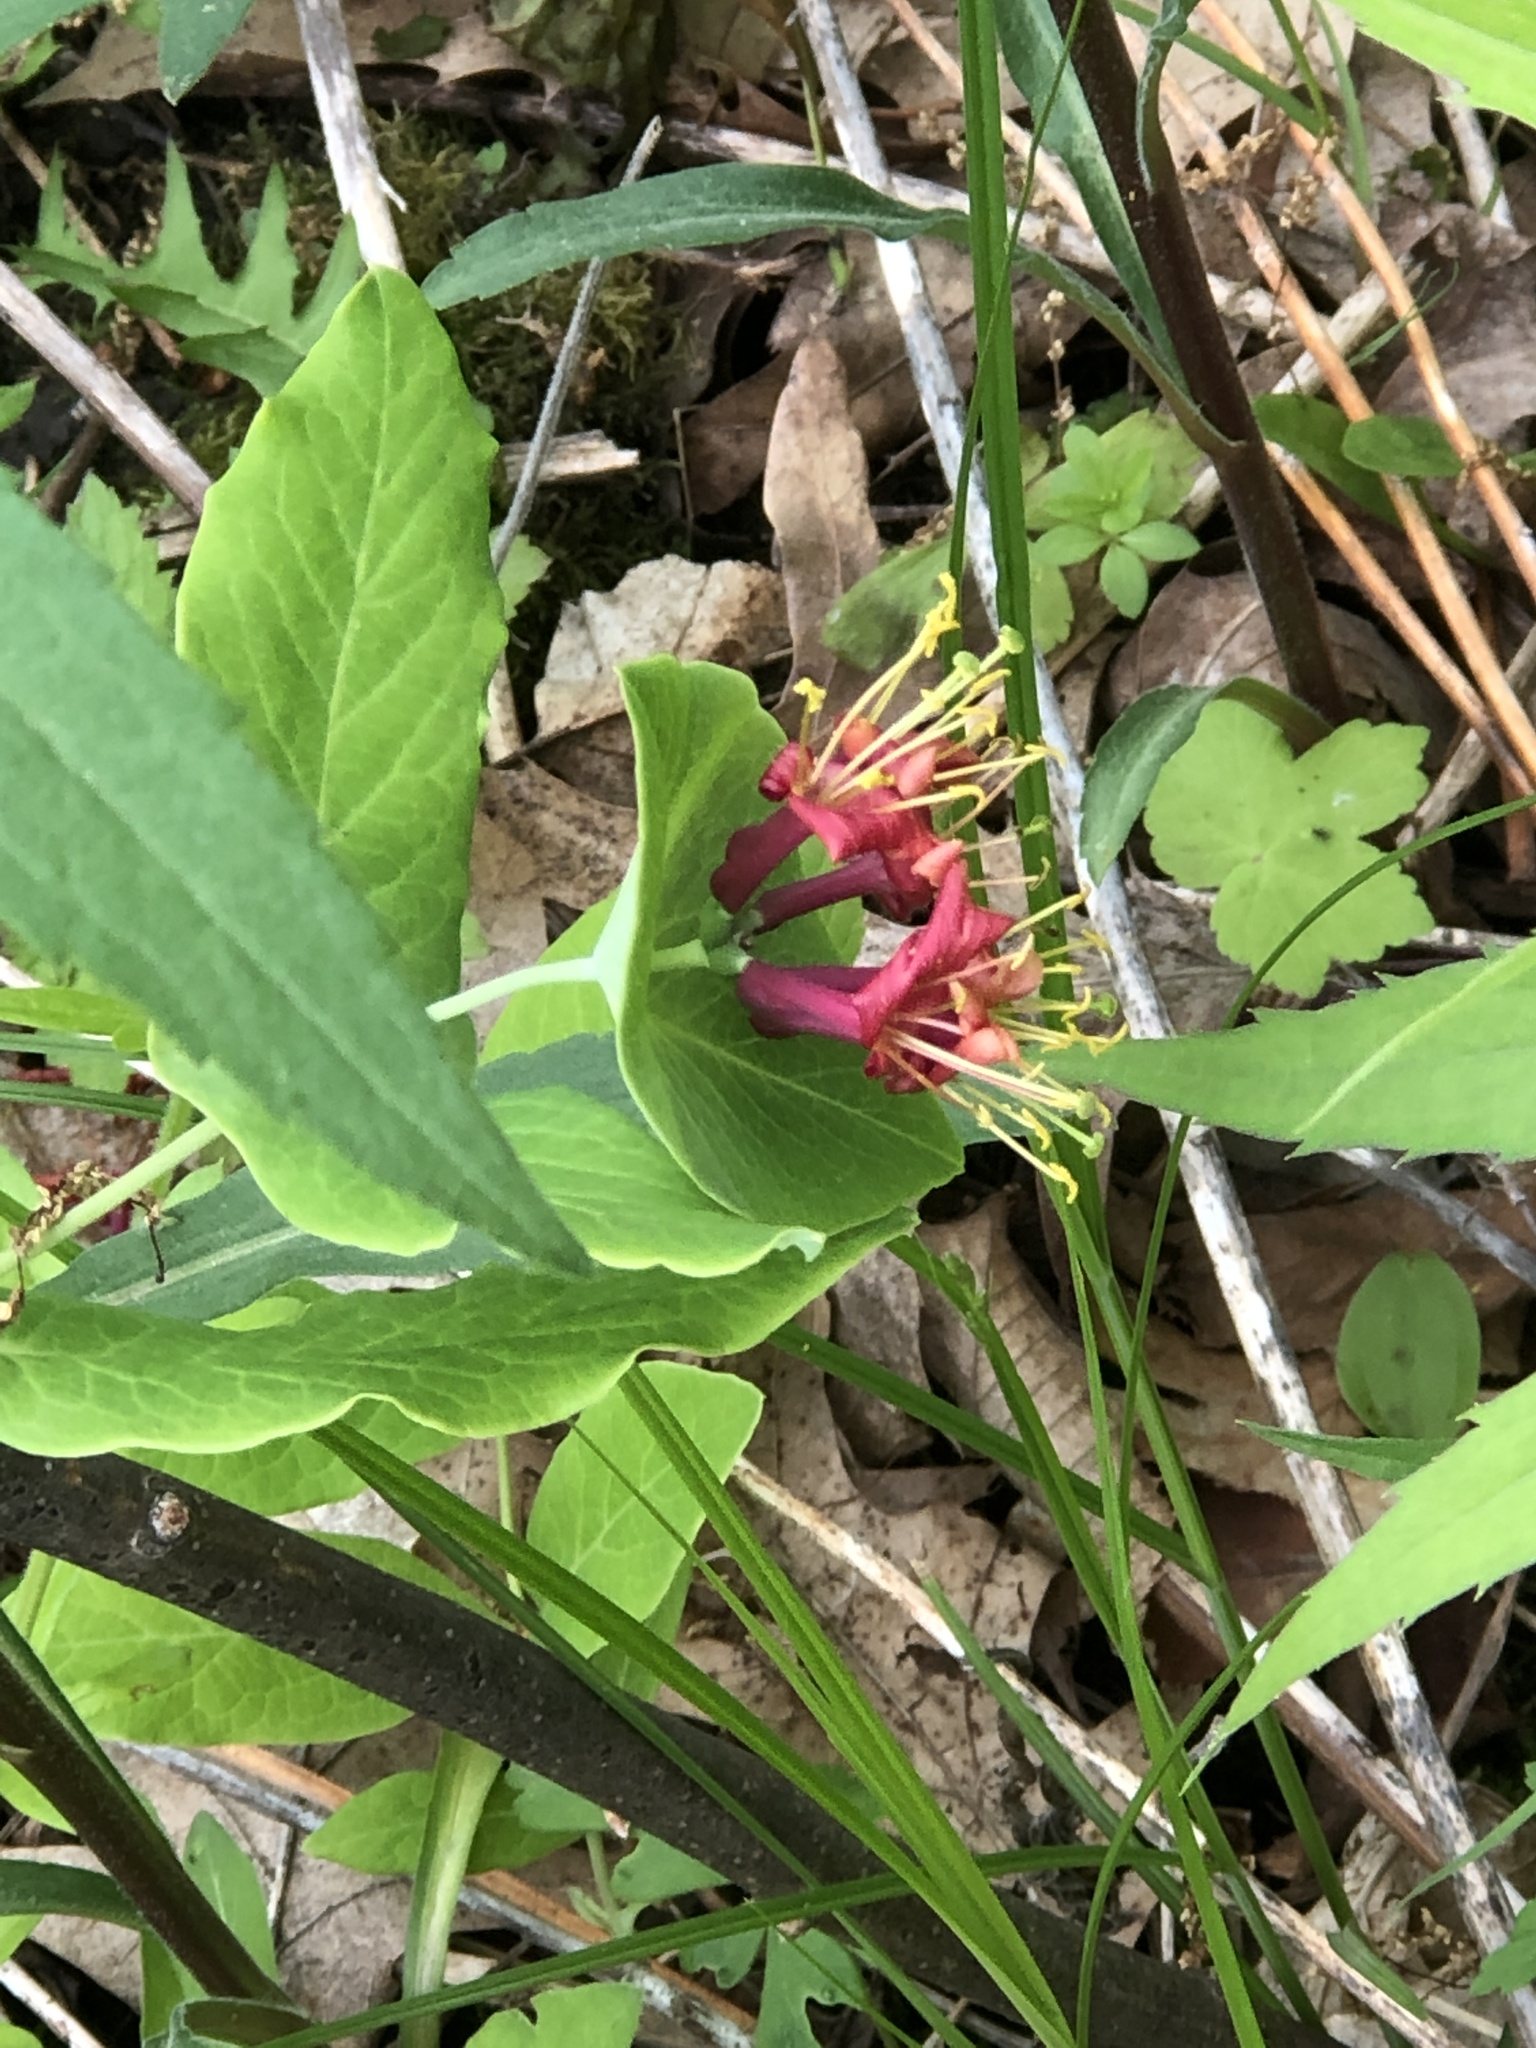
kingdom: Plantae
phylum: Tracheophyta
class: Magnoliopsida
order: Dipsacales
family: Caprifoliaceae
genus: Lonicera
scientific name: Lonicera dioica
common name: Limber honeysuckle
